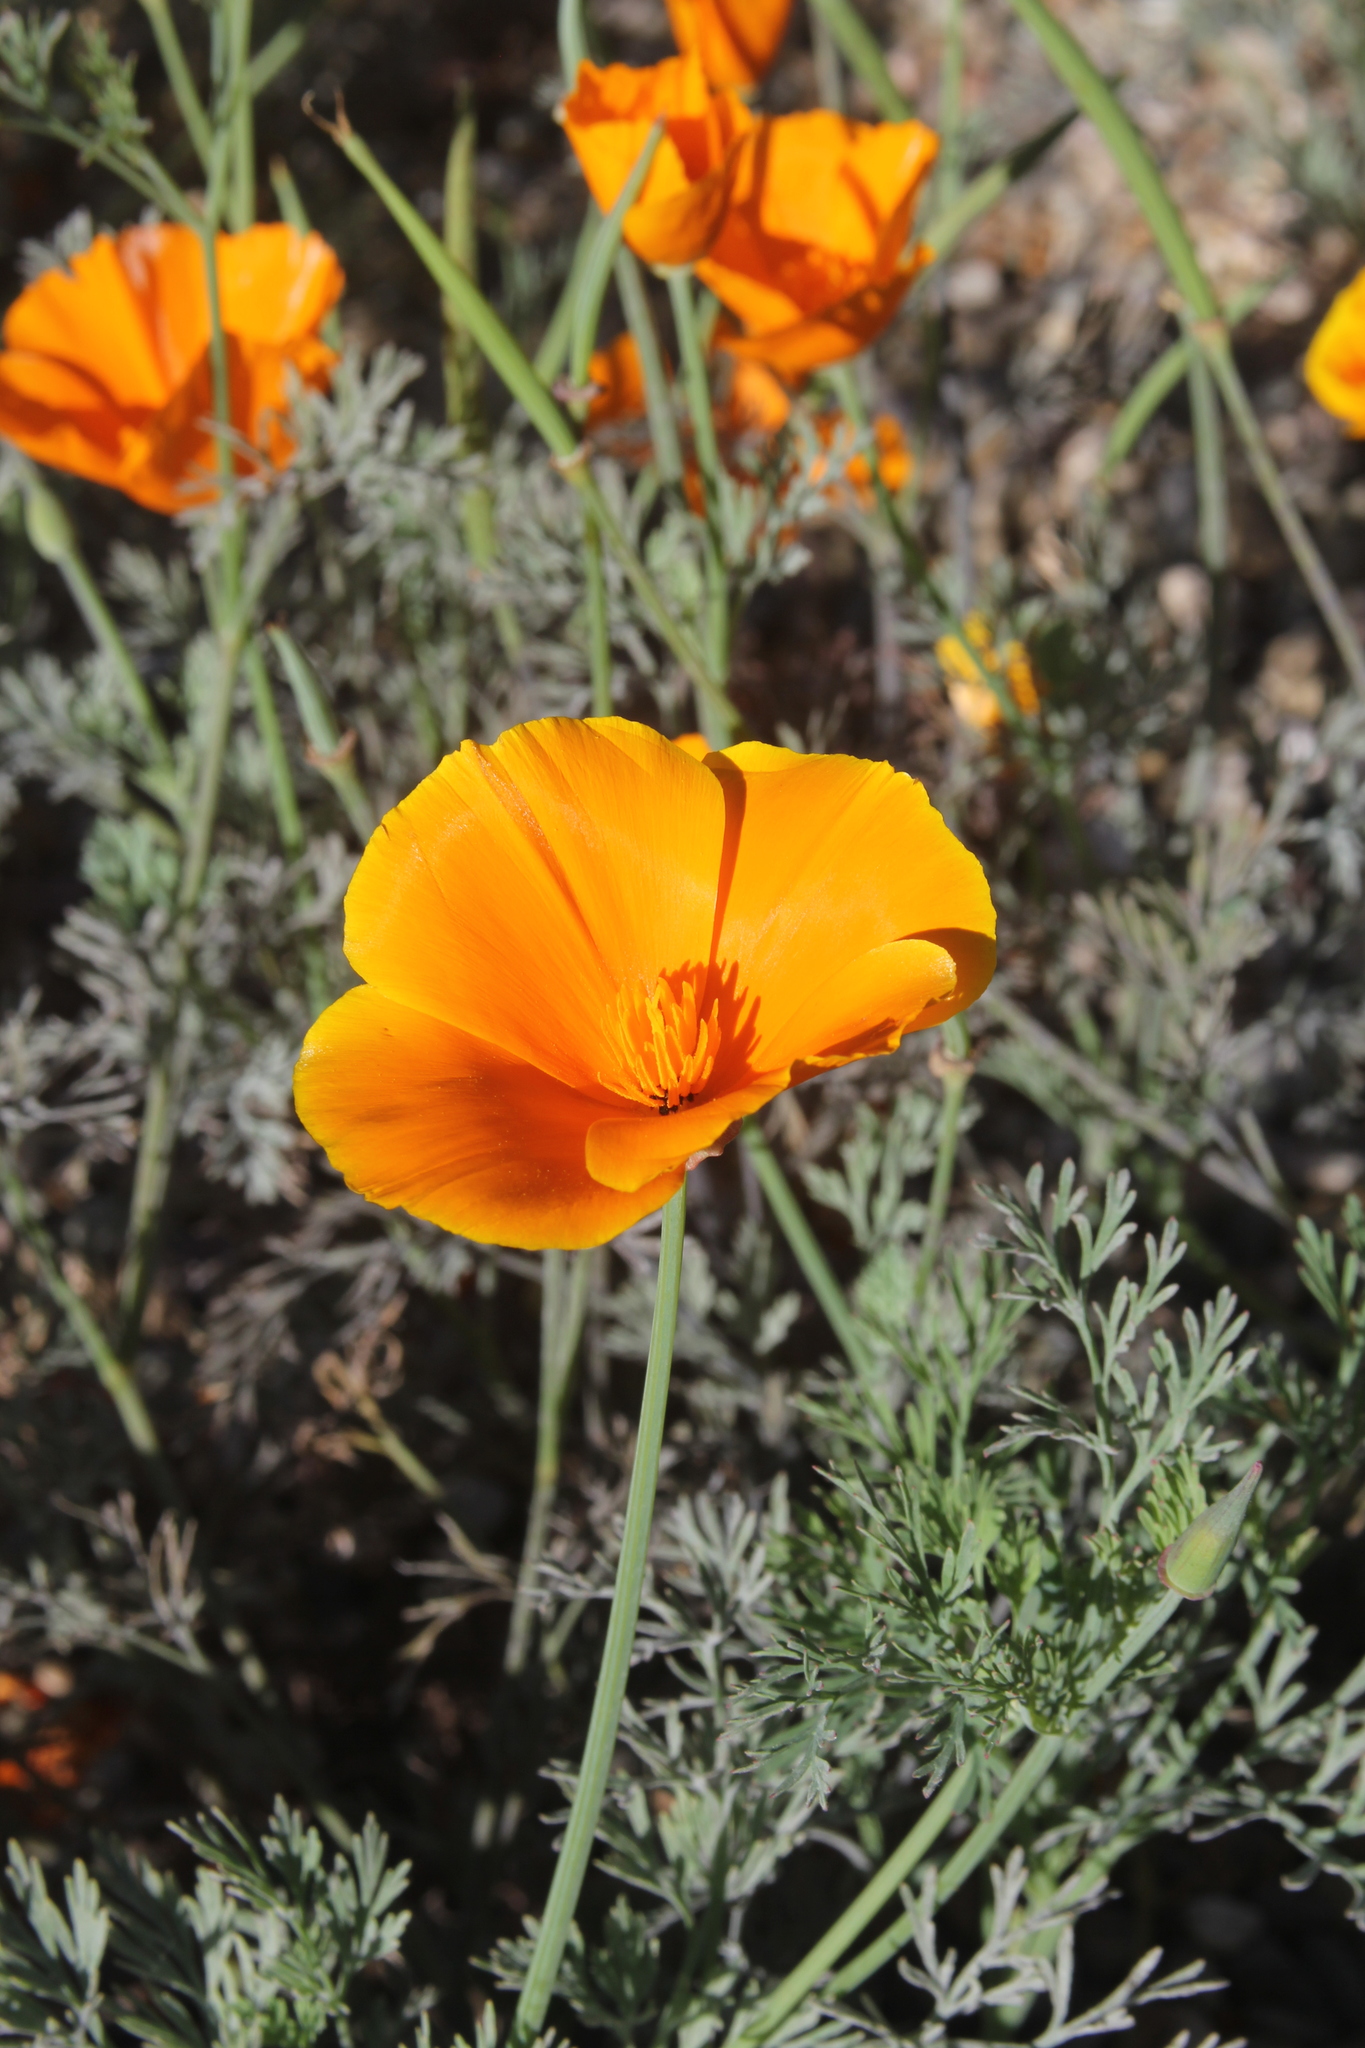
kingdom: Plantae
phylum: Tracheophyta
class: Magnoliopsida
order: Ranunculales
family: Papaveraceae
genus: Eschscholzia
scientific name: Eschscholzia californica
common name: California poppy
